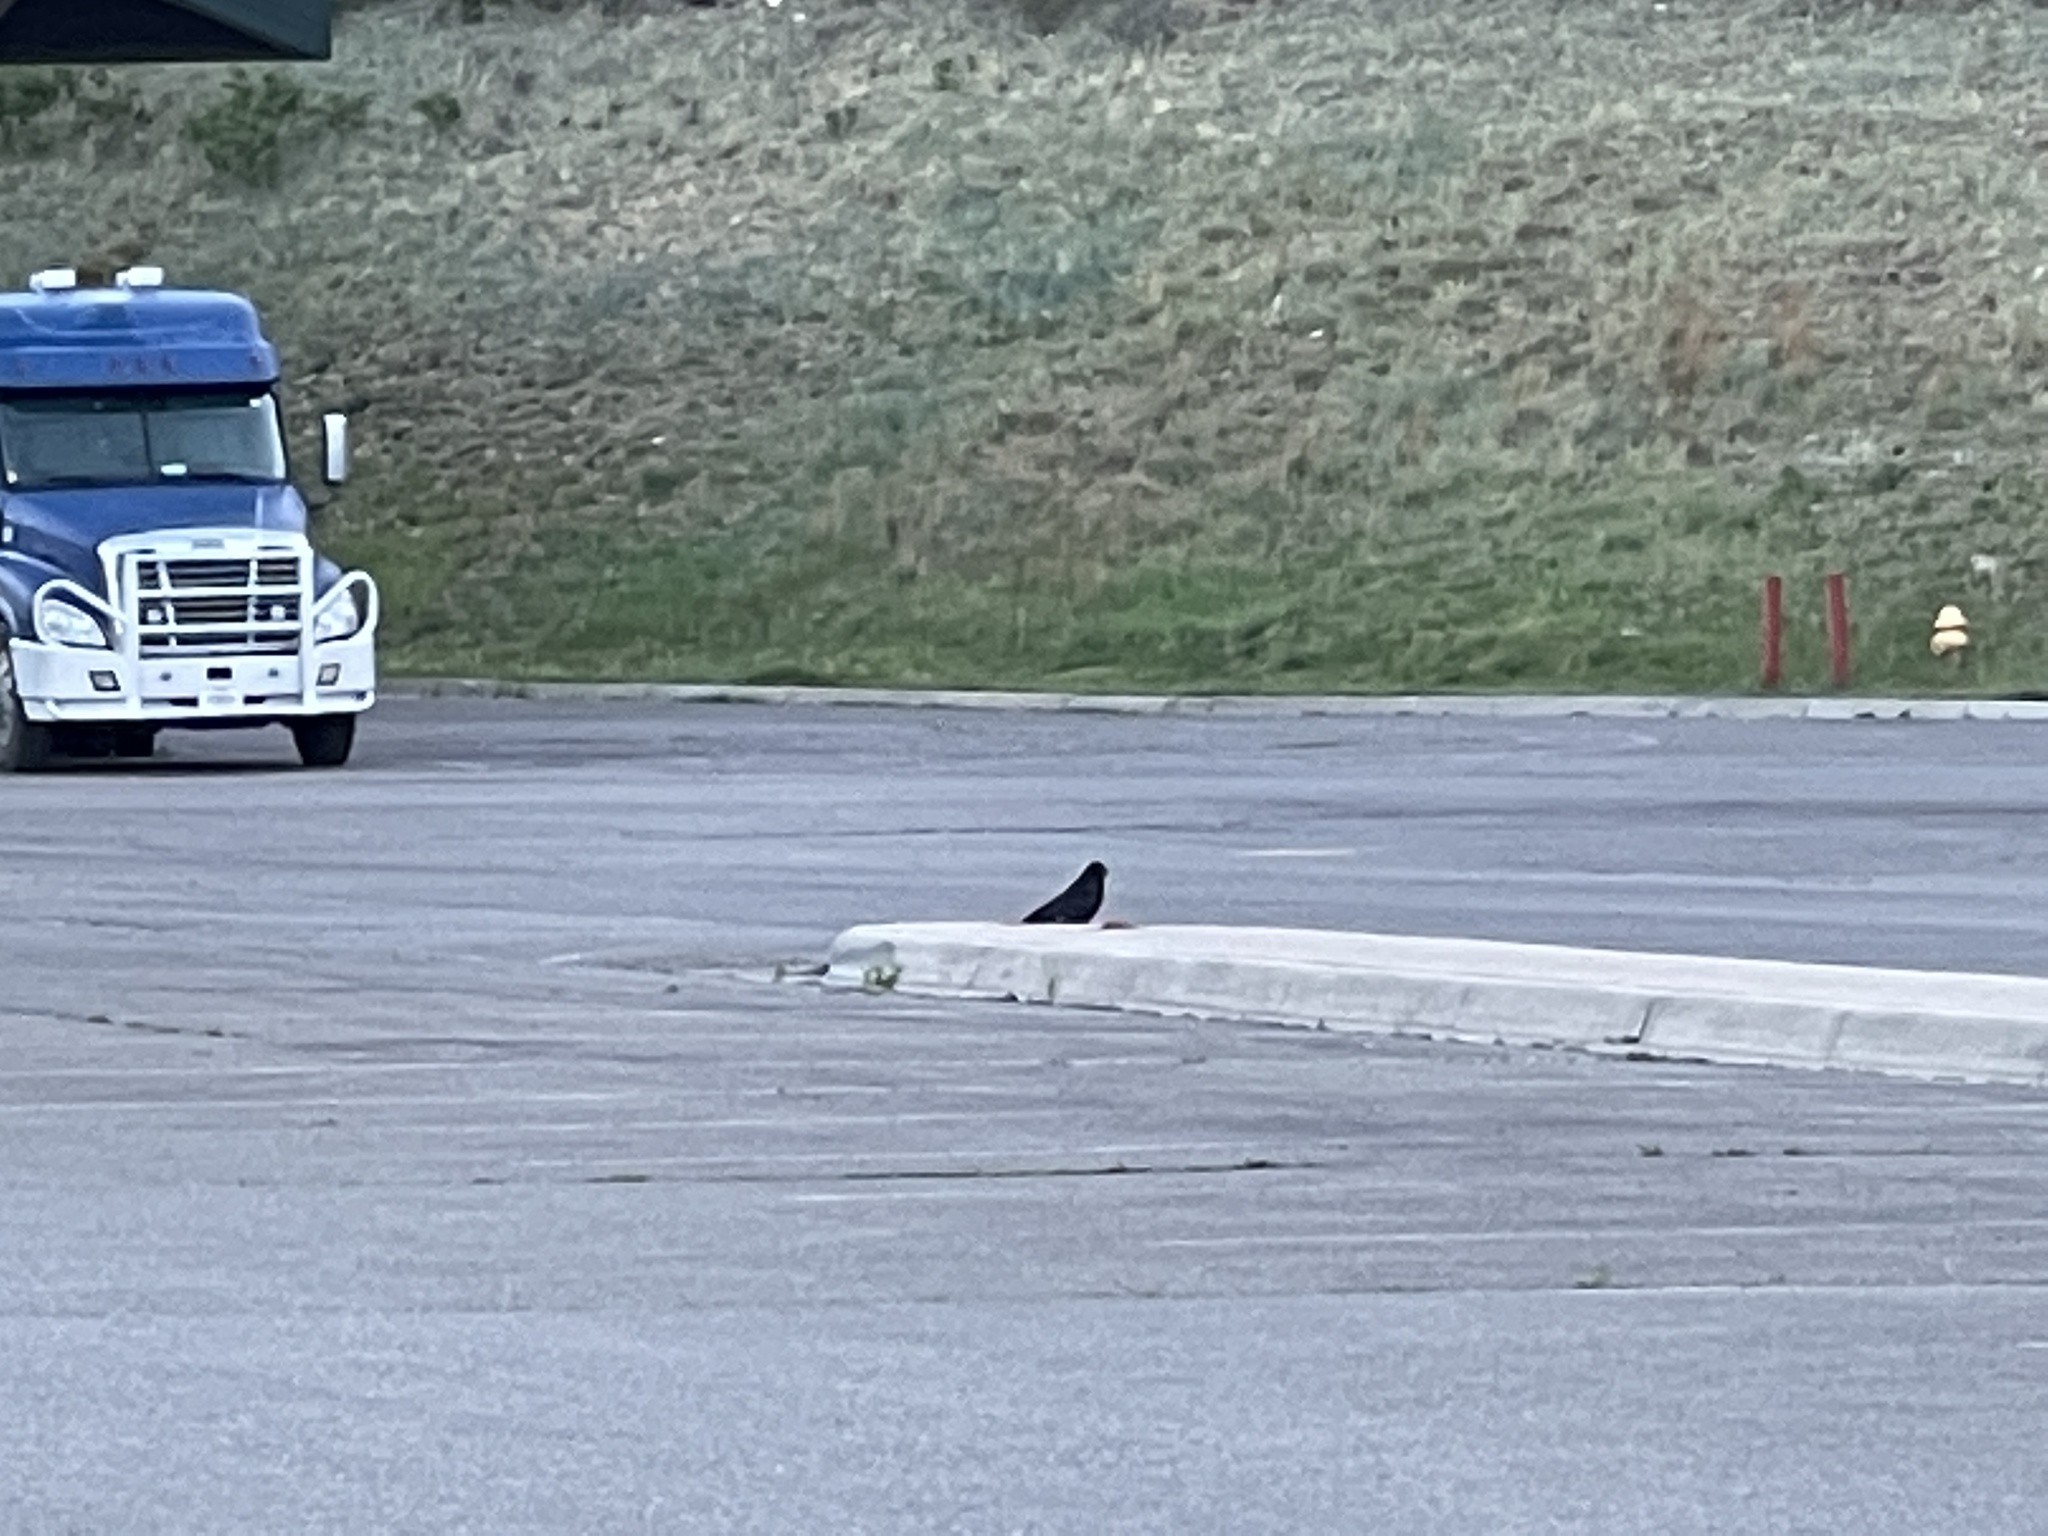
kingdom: Animalia
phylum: Chordata
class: Aves
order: Passeriformes
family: Corvidae
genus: Corvus
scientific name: Corvus corax
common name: Common raven
